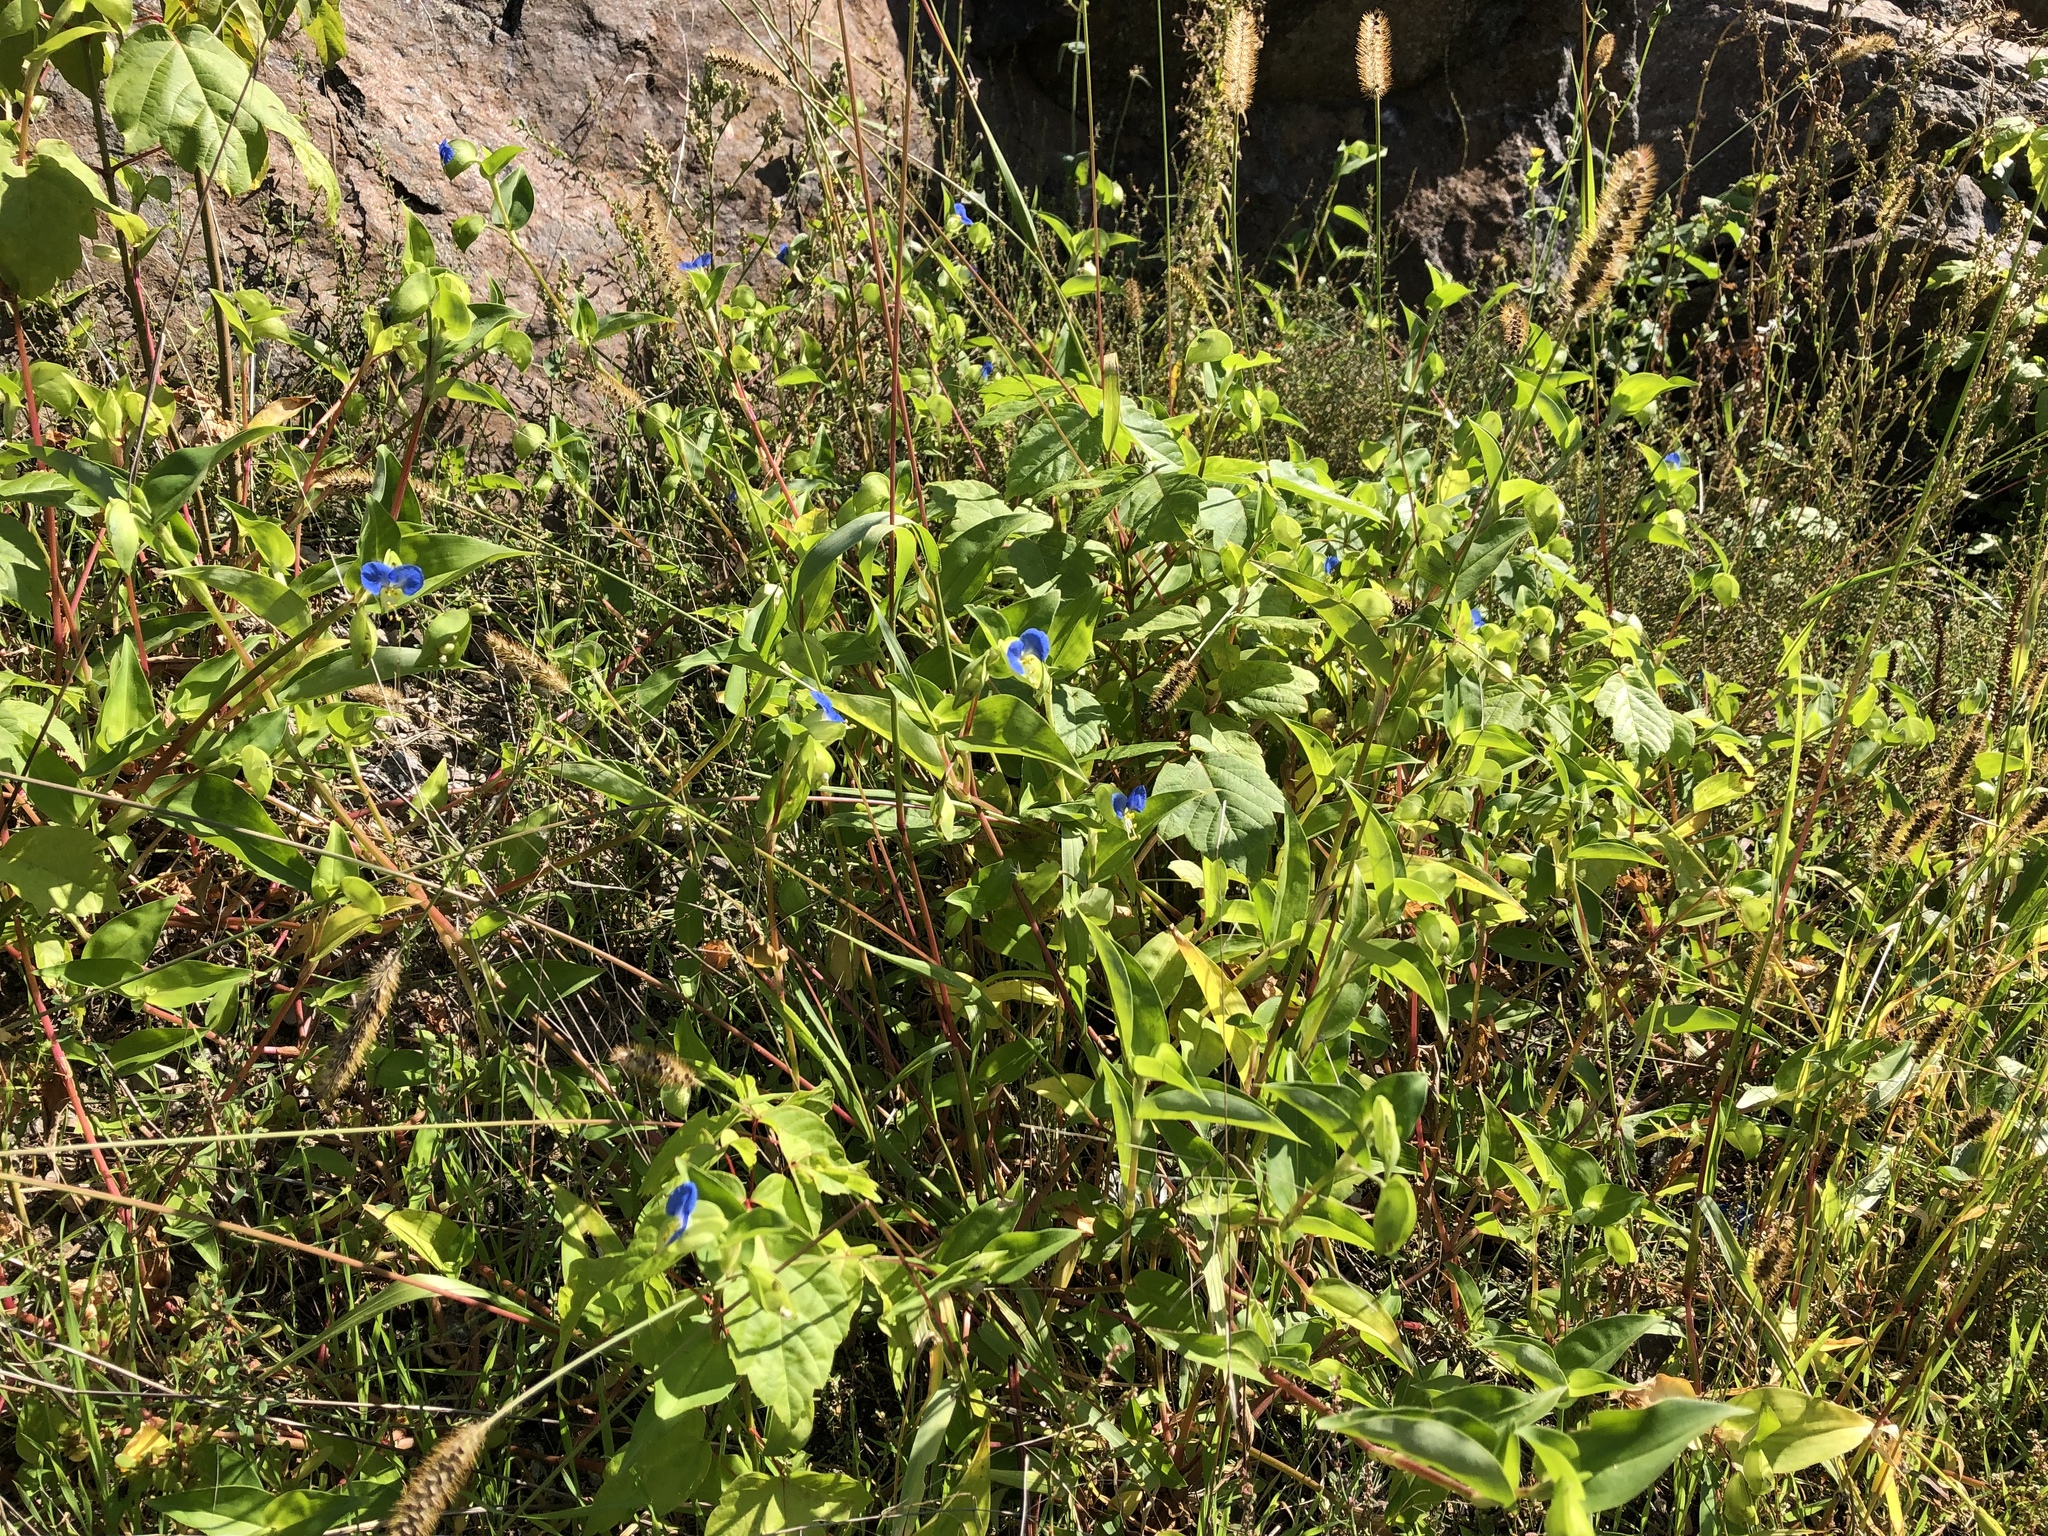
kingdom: Plantae
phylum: Tracheophyta
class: Liliopsida
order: Commelinales
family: Commelinaceae
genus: Commelina
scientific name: Commelina communis
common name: Asiatic dayflower
